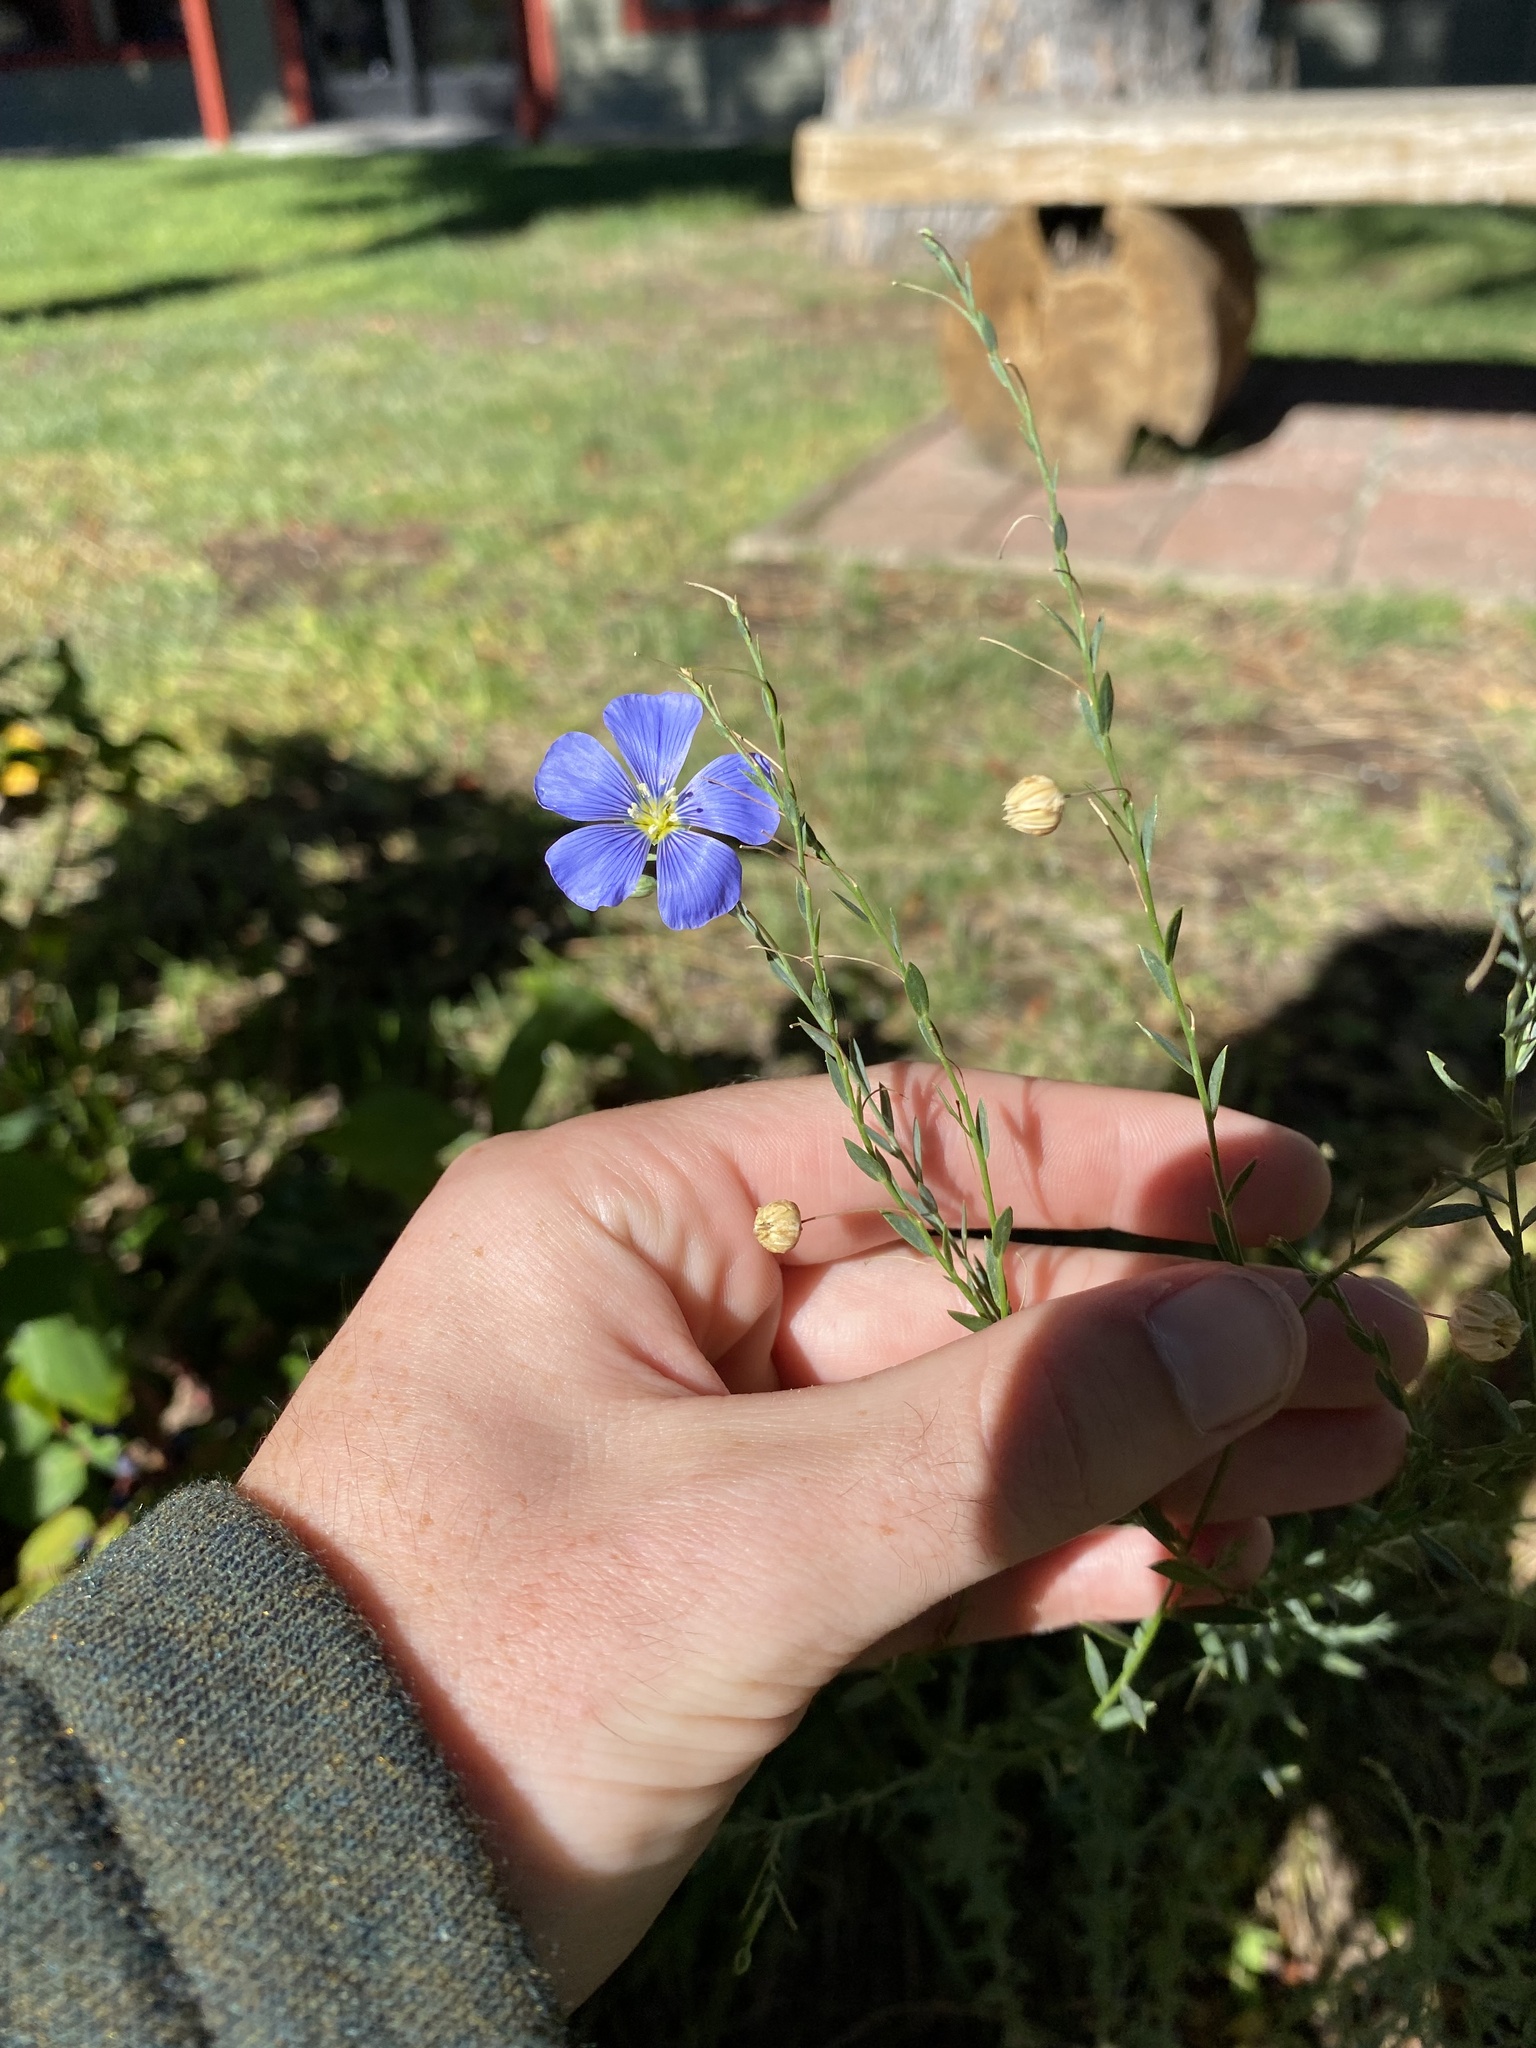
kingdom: Plantae
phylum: Tracheophyta
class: Magnoliopsida
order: Malpighiales
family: Linaceae
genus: Linum
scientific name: Linum lewisii
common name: Prairie flax
